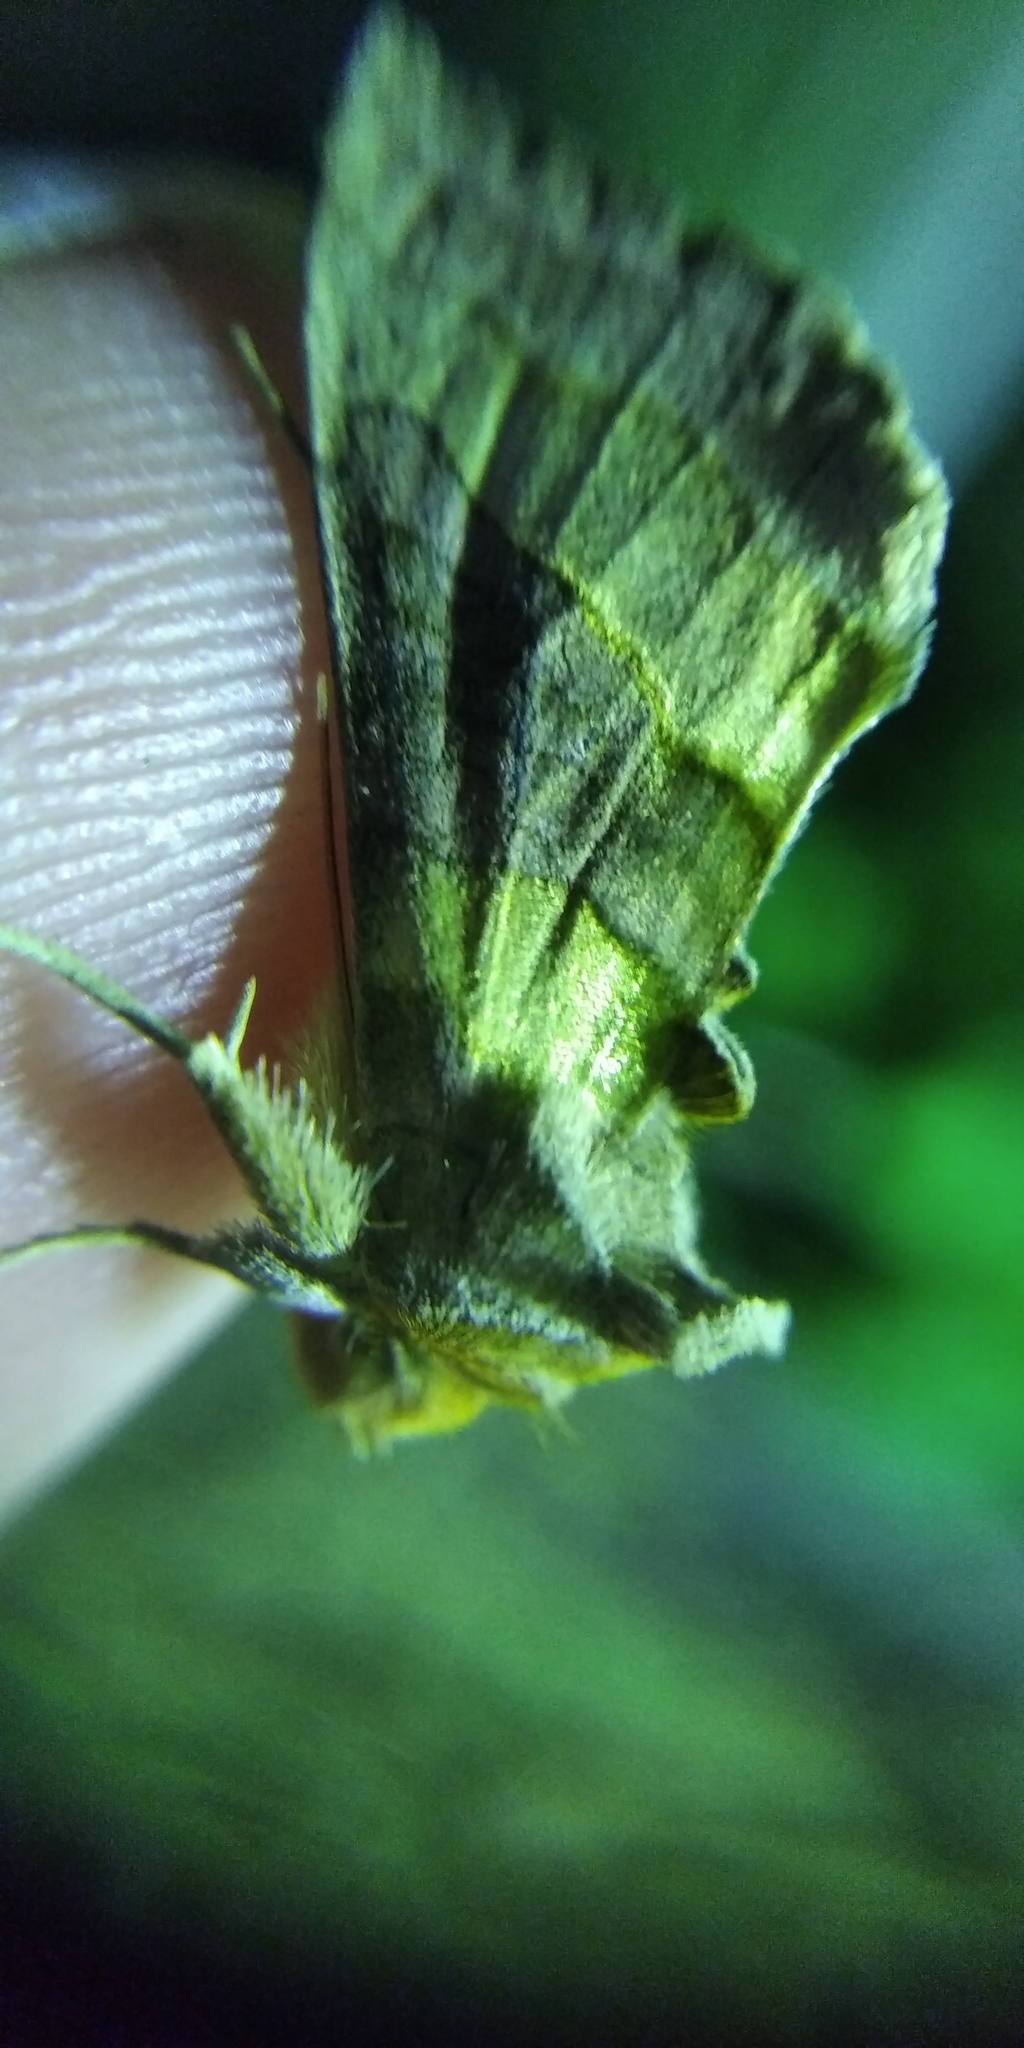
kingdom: Animalia
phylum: Arthropoda
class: Insecta
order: Lepidoptera
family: Noctuidae
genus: Diachrysia
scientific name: Diachrysia chrysitis
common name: Burnished brass
